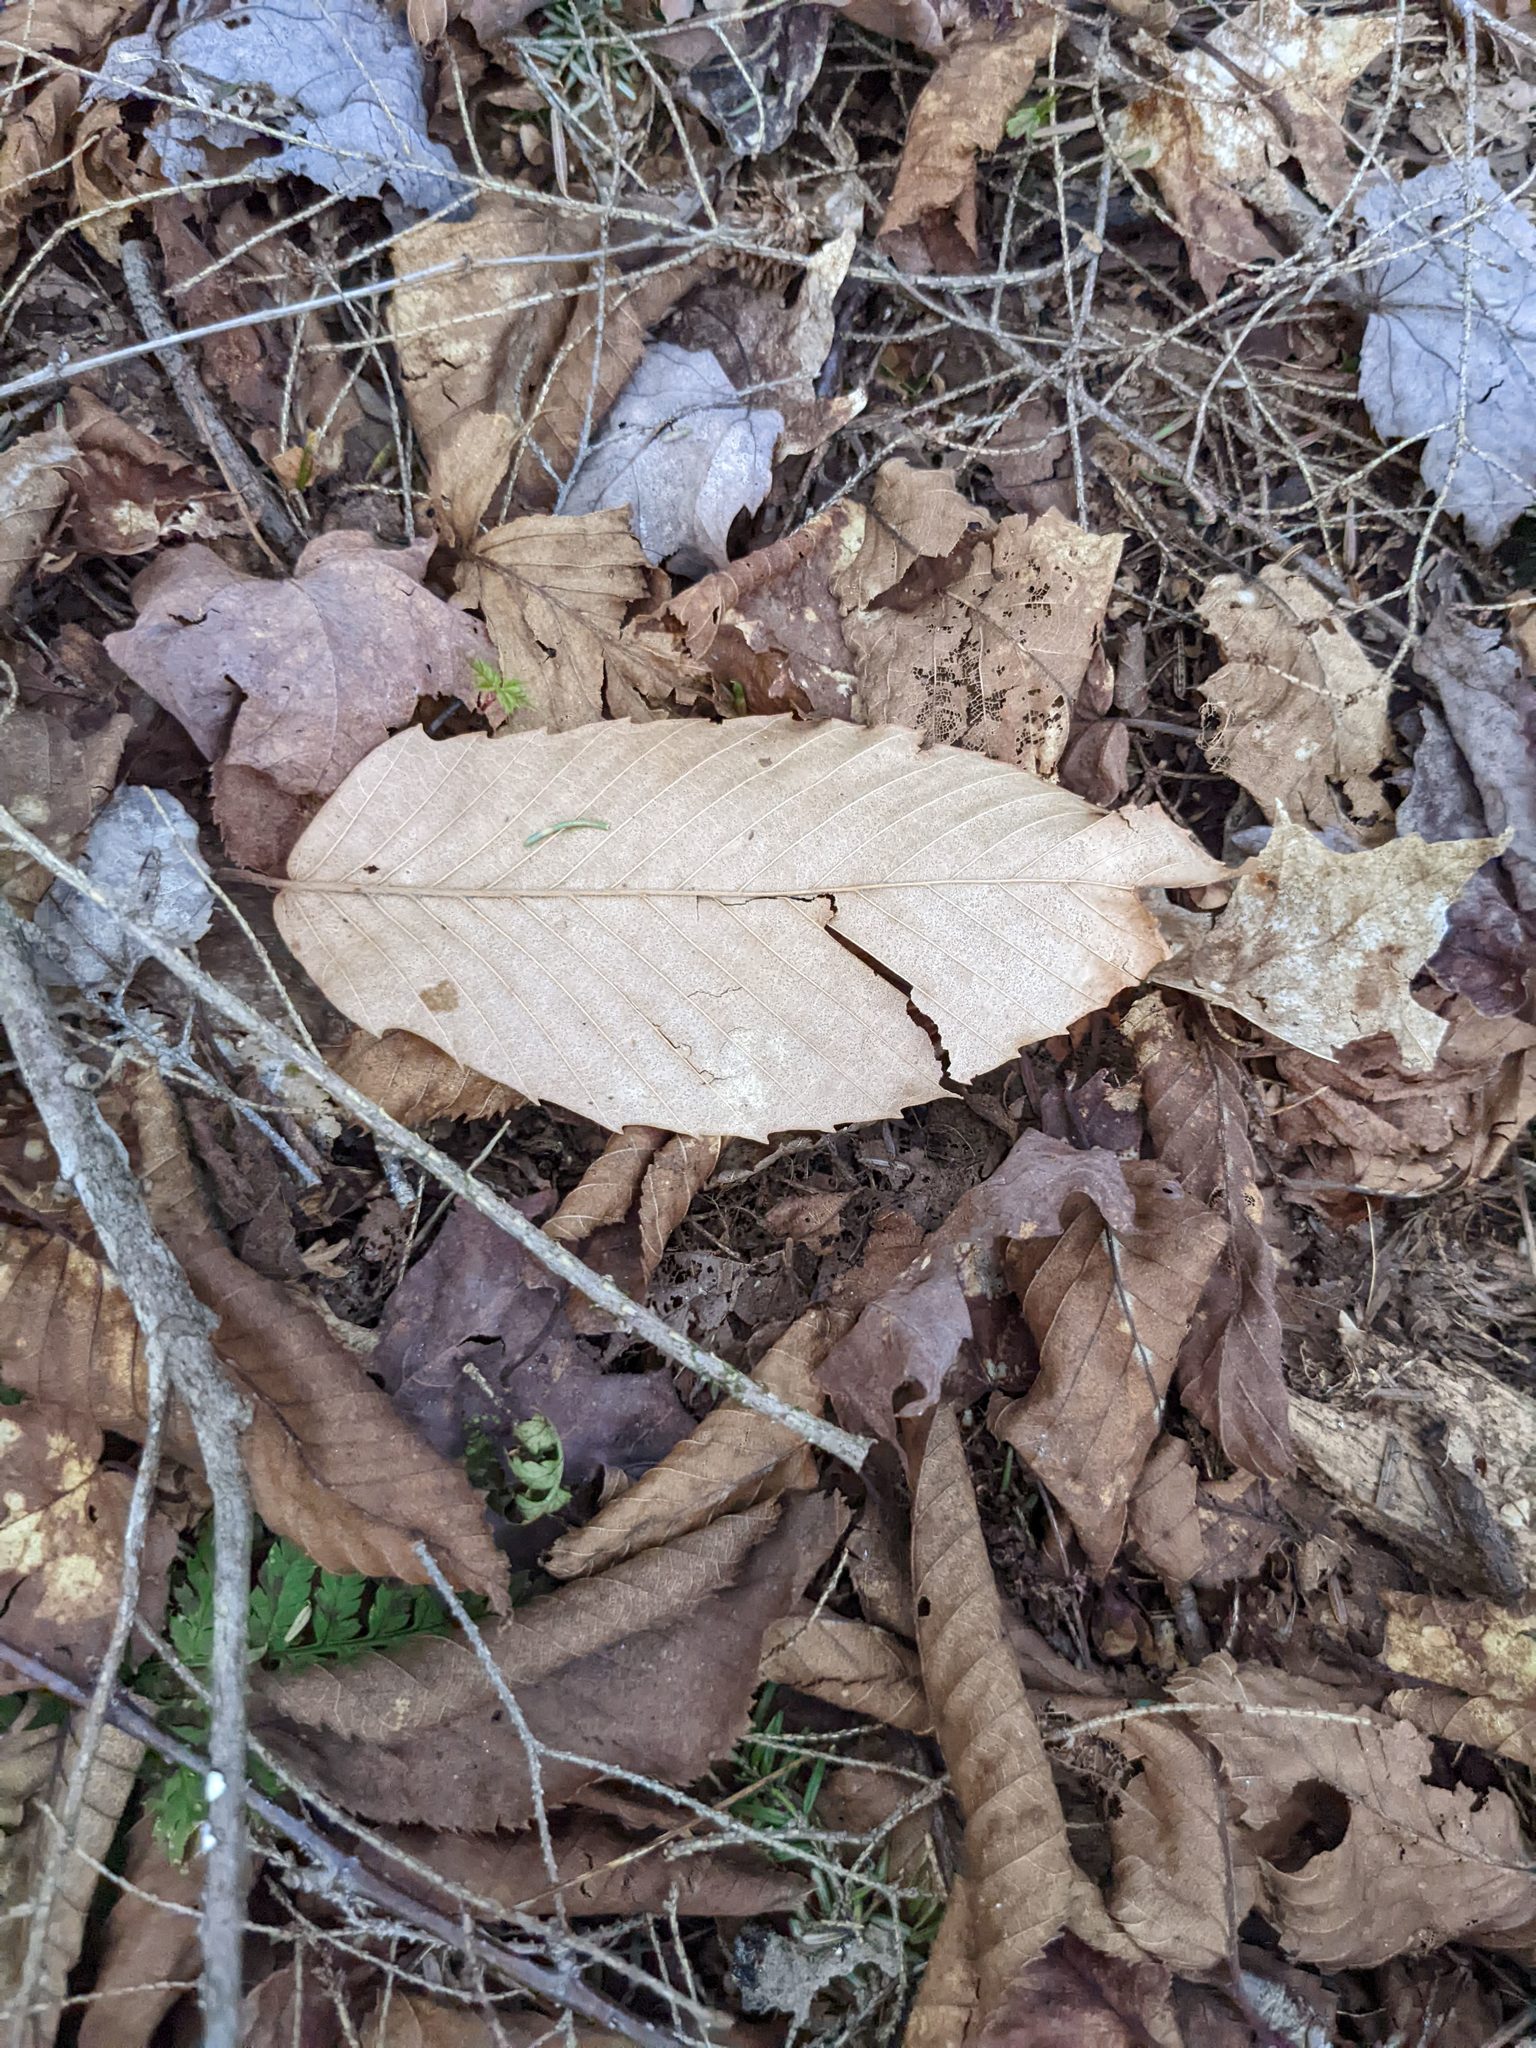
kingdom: Plantae
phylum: Tracheophyta
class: Magnoliopsida
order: Fagales
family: Fagaceae
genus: Fagus
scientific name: Fagus grandifolia
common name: American beech
